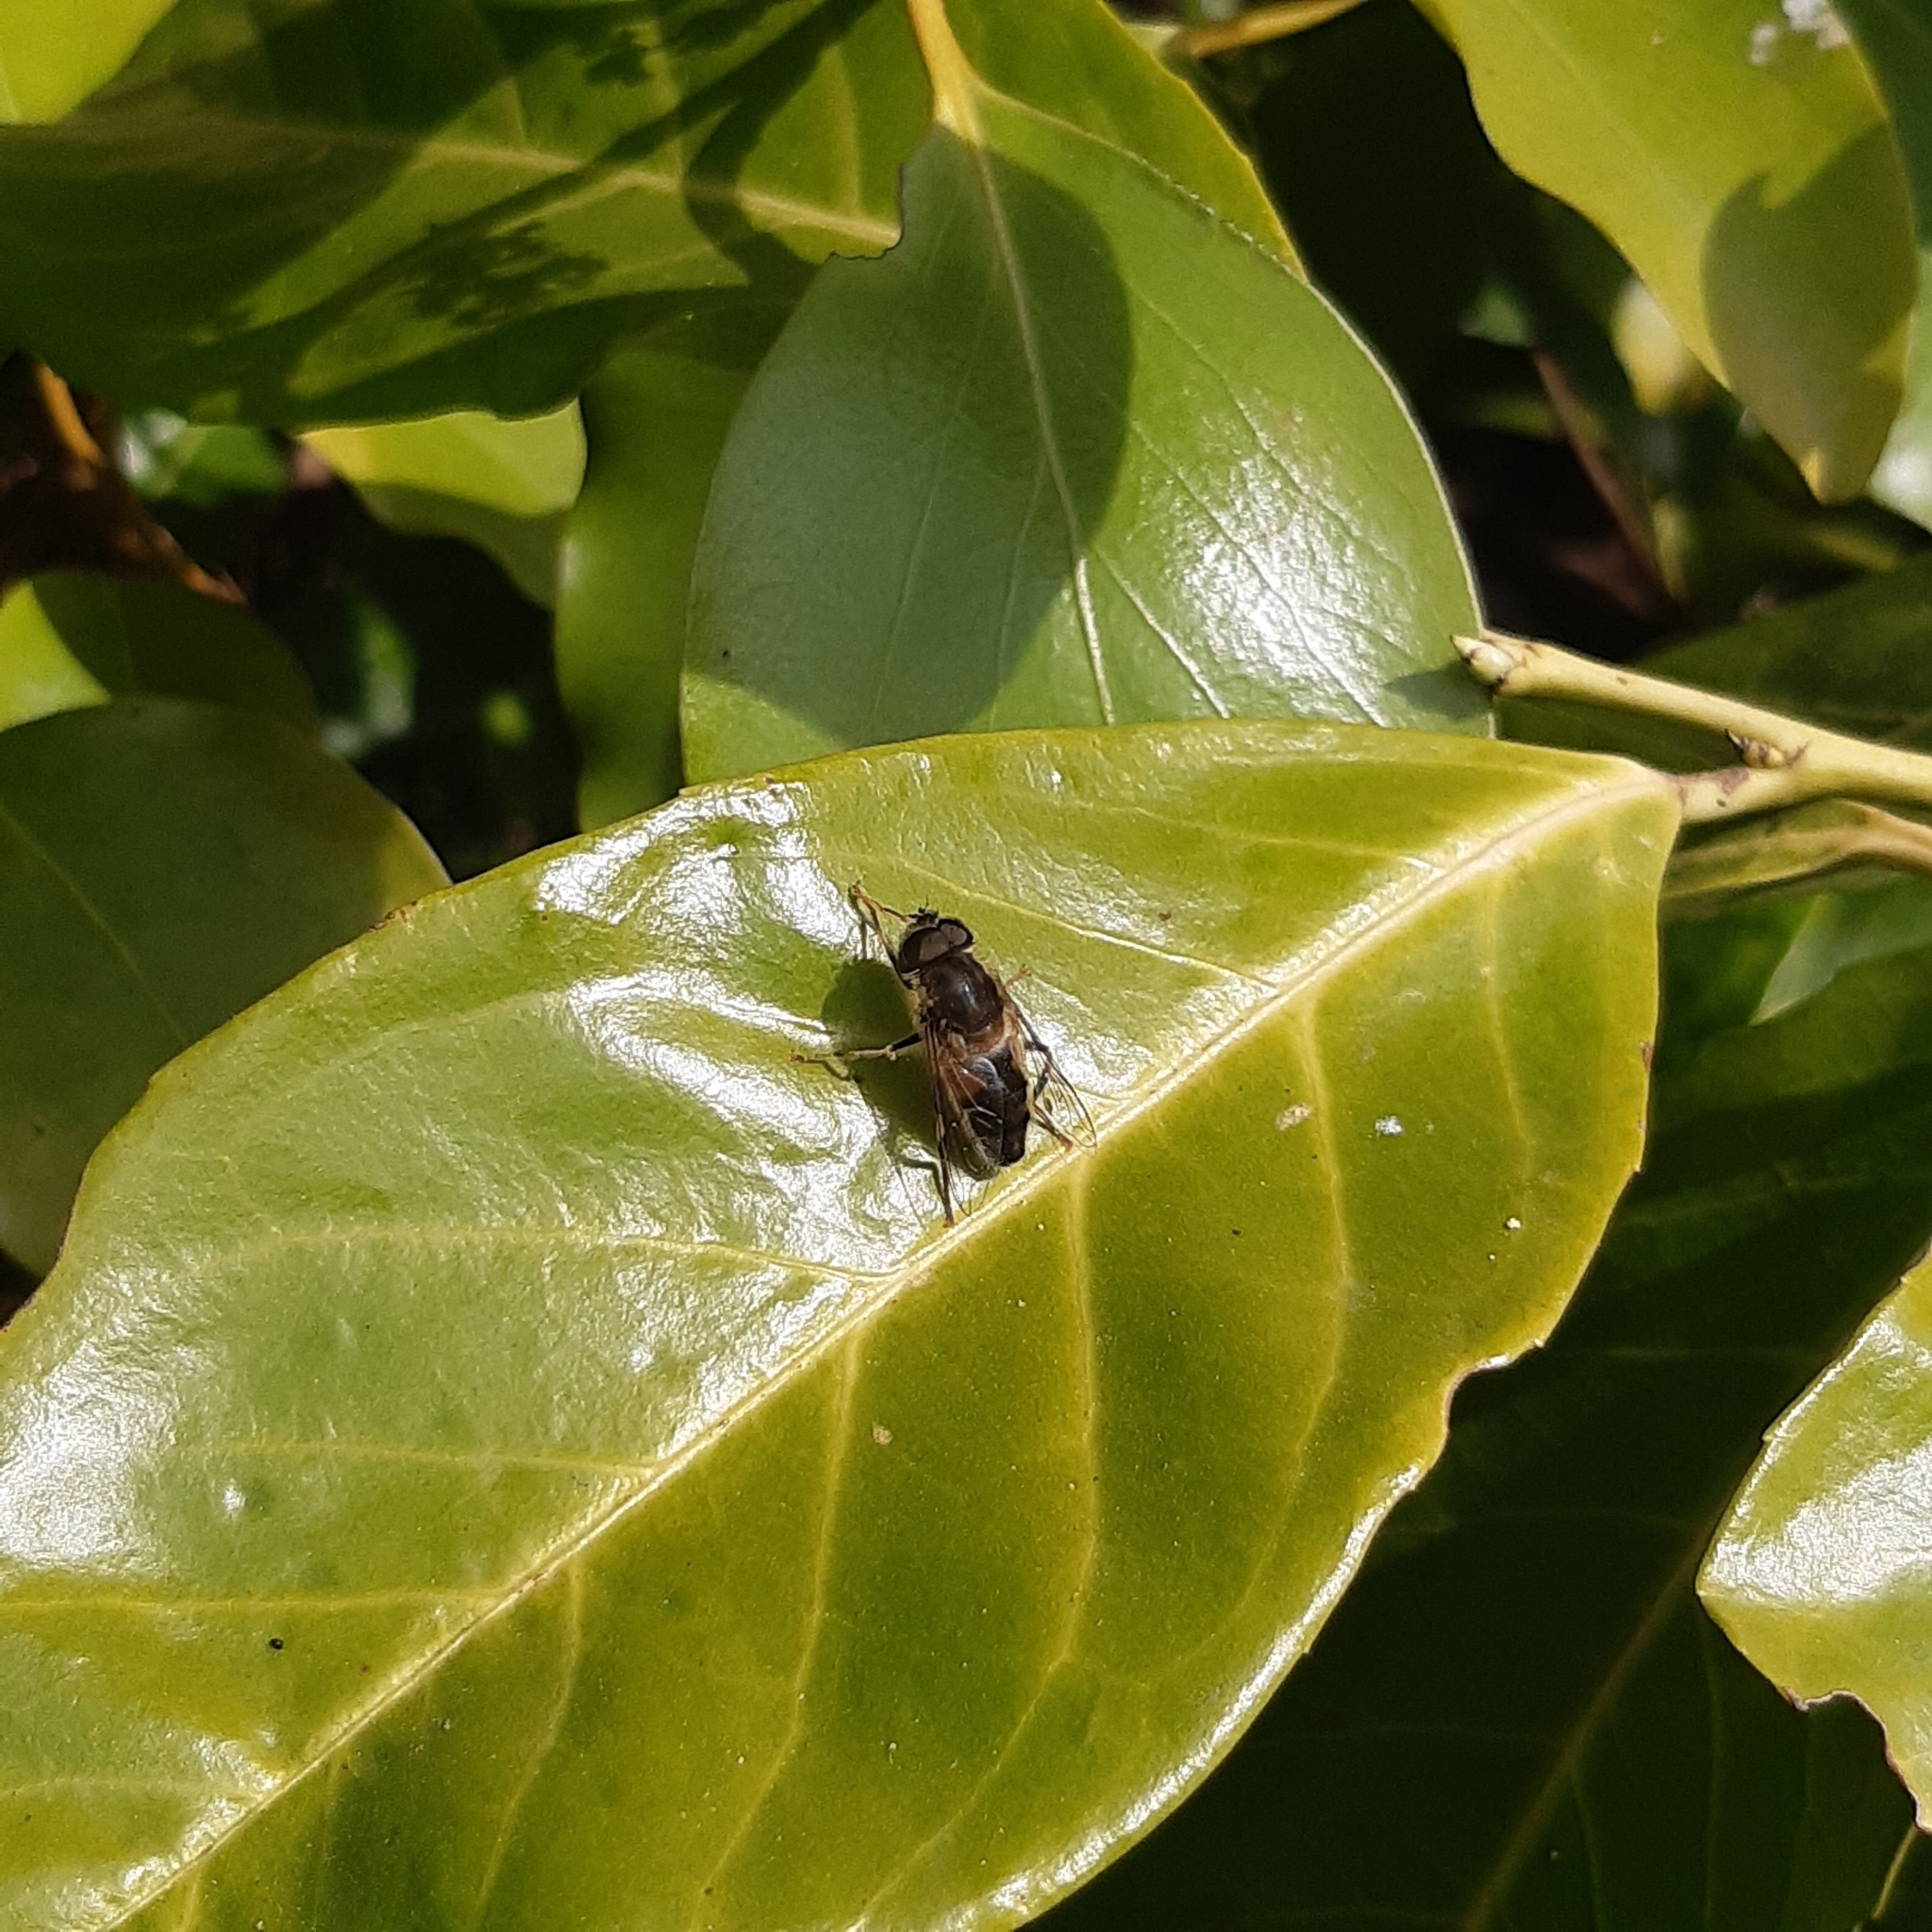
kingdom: Animalia
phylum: Arthropoda
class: Insecta
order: Diptera
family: Syrphidae
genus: Eristalis
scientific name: Eristalis pertinax
